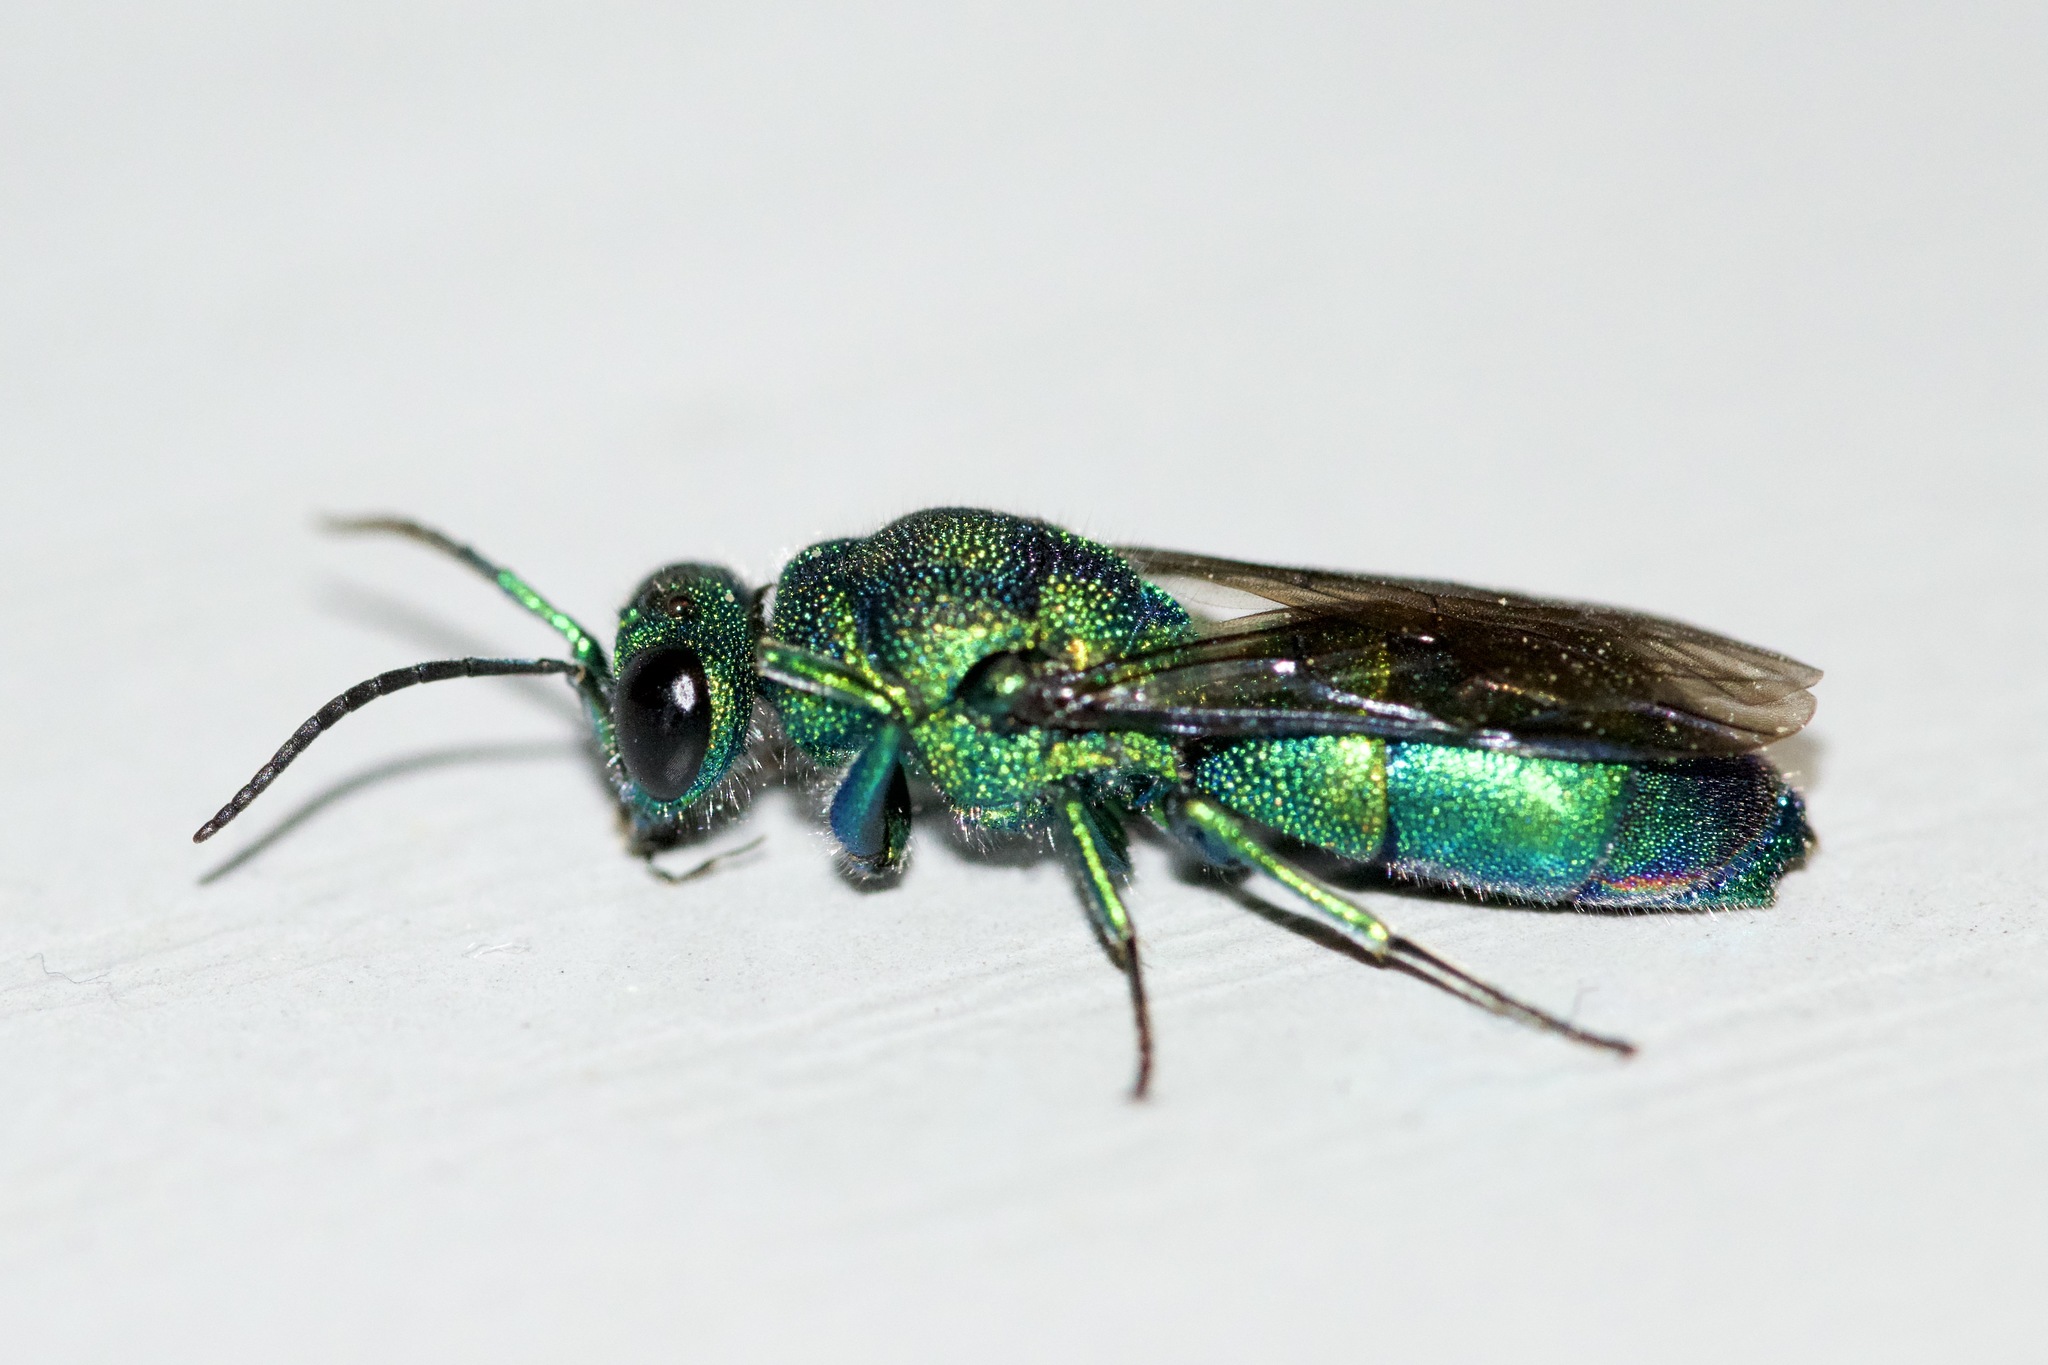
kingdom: Animalia
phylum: Arthropoda
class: Insecta
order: Hymenoptera
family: Chrysididae
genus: Chrysis
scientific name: Chrysis
